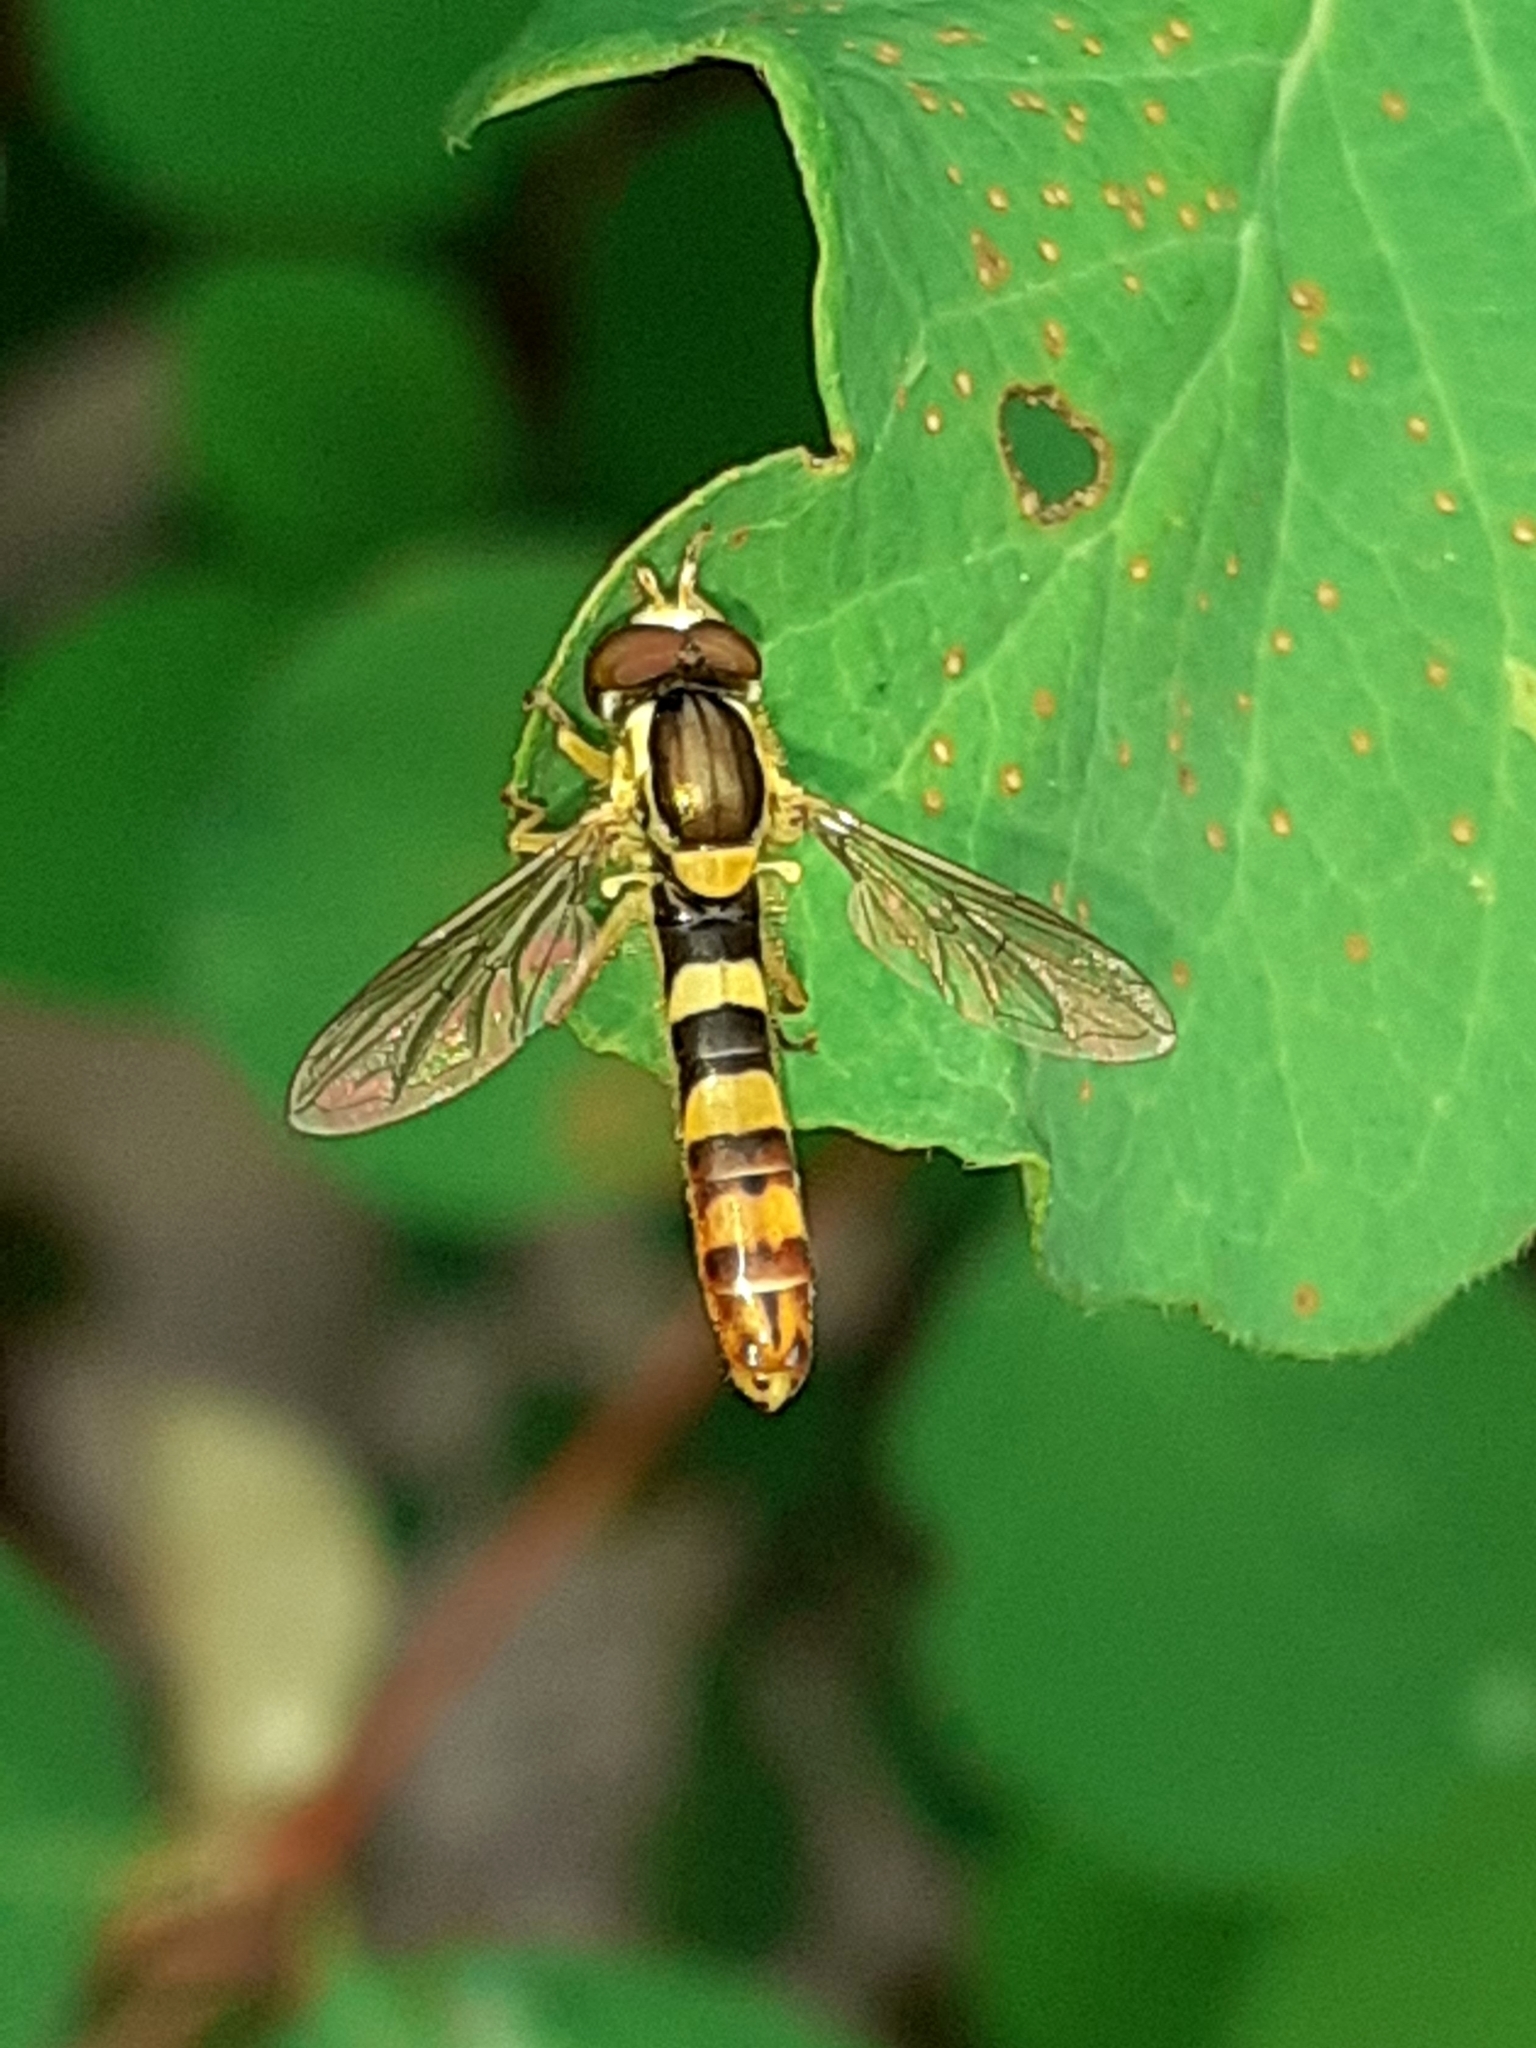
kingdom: Animalia
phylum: Arthropoda
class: Insecta
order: Diptera
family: Syrphidae
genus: Sphaerophoria
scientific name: Sphaerophoria scripta
